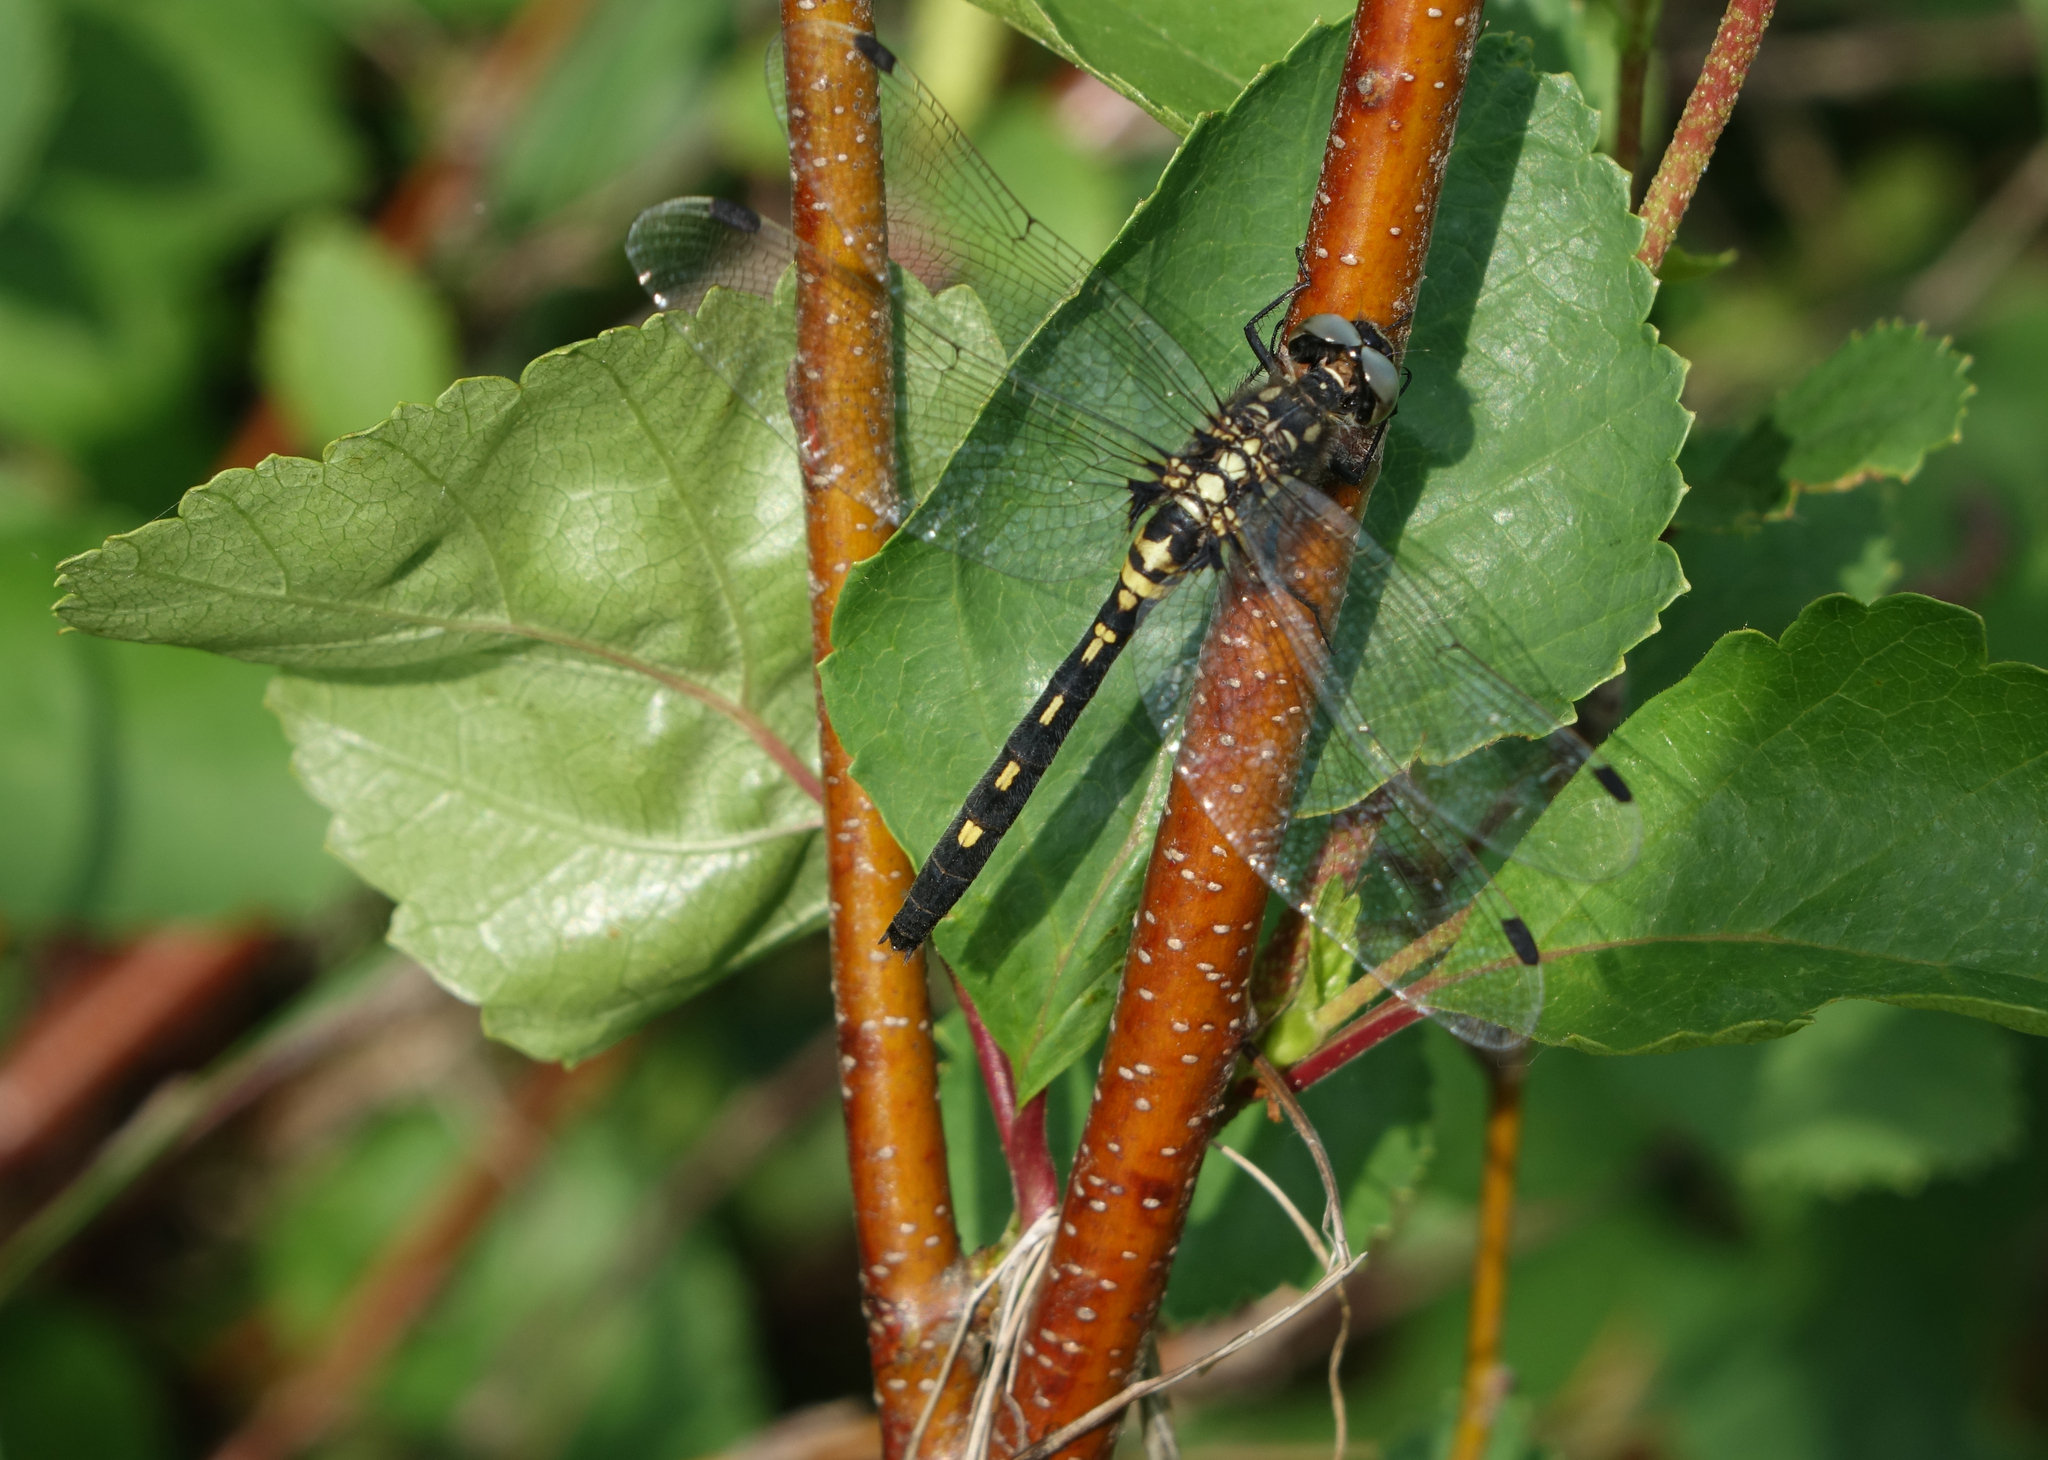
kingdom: Animalia
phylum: Arthropoda
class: Insecta
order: Odonata
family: Libellulidae
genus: Leucorrhinia
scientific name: Leucorrhinia orientalis
